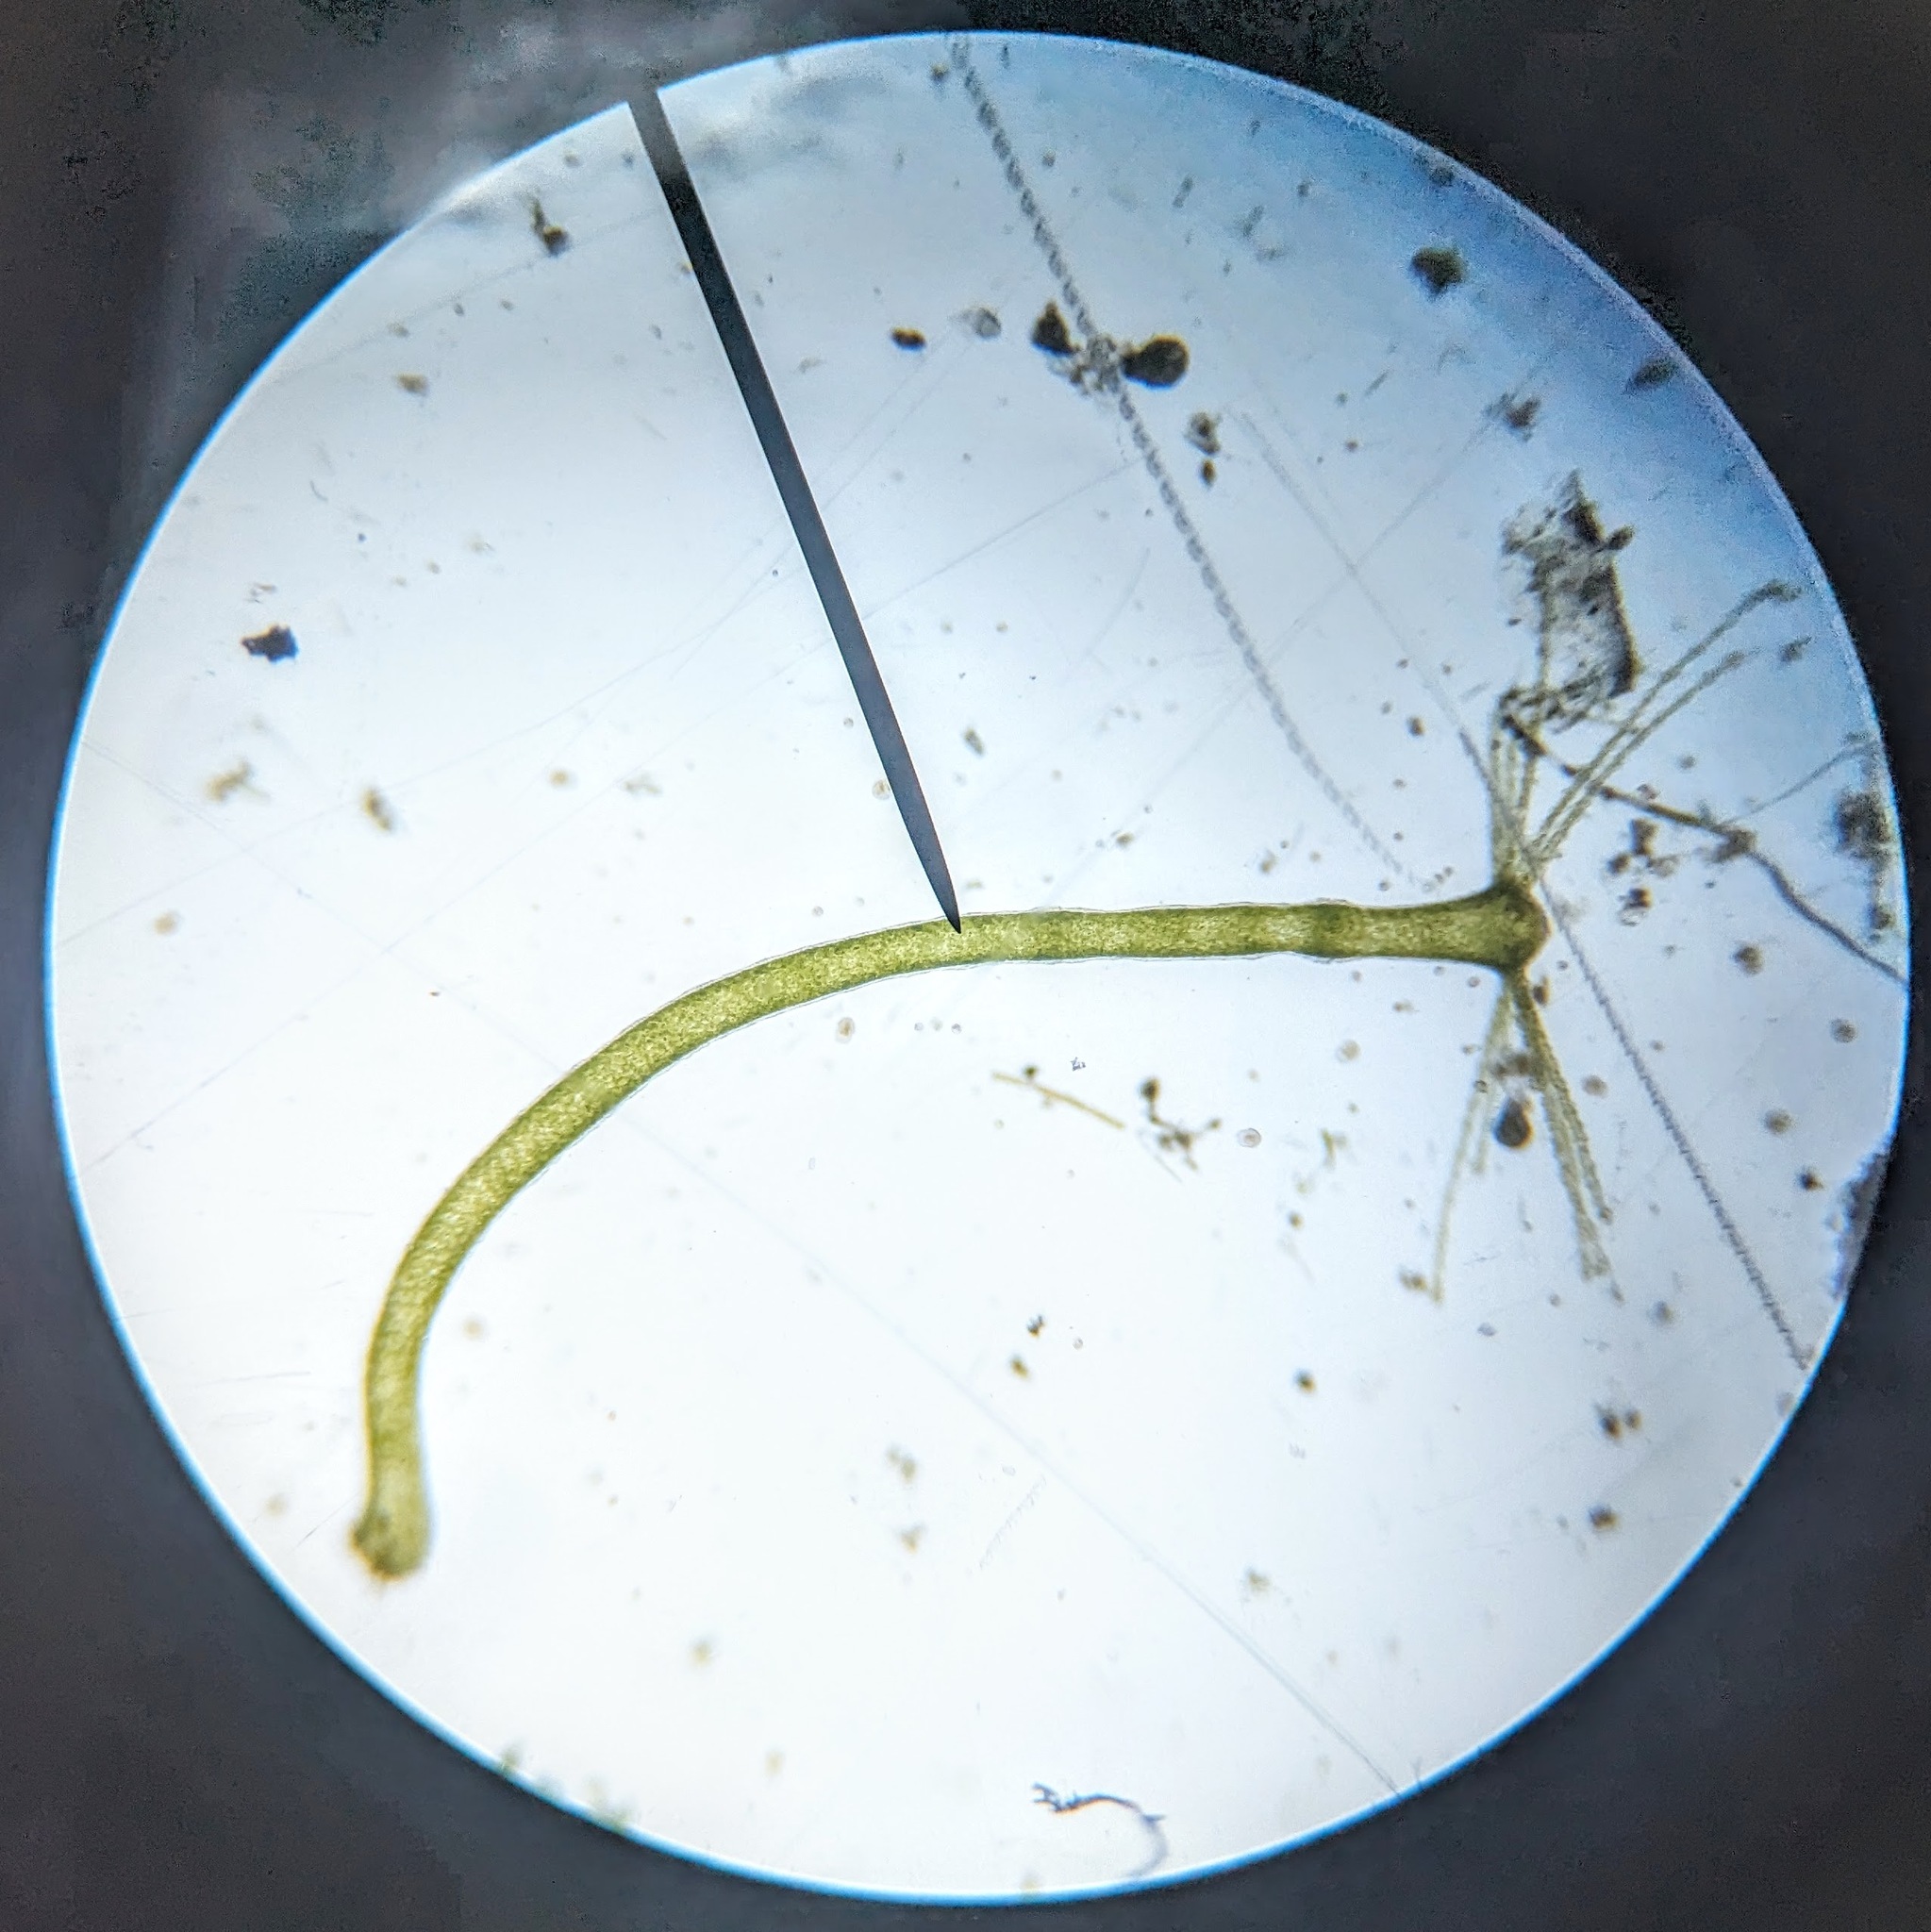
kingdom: Animalia
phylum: Cnidaria
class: Hydrozoa
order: Anthoathecata
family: Hydridae
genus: Hydra
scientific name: Hydra viridissima
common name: Green hydra
